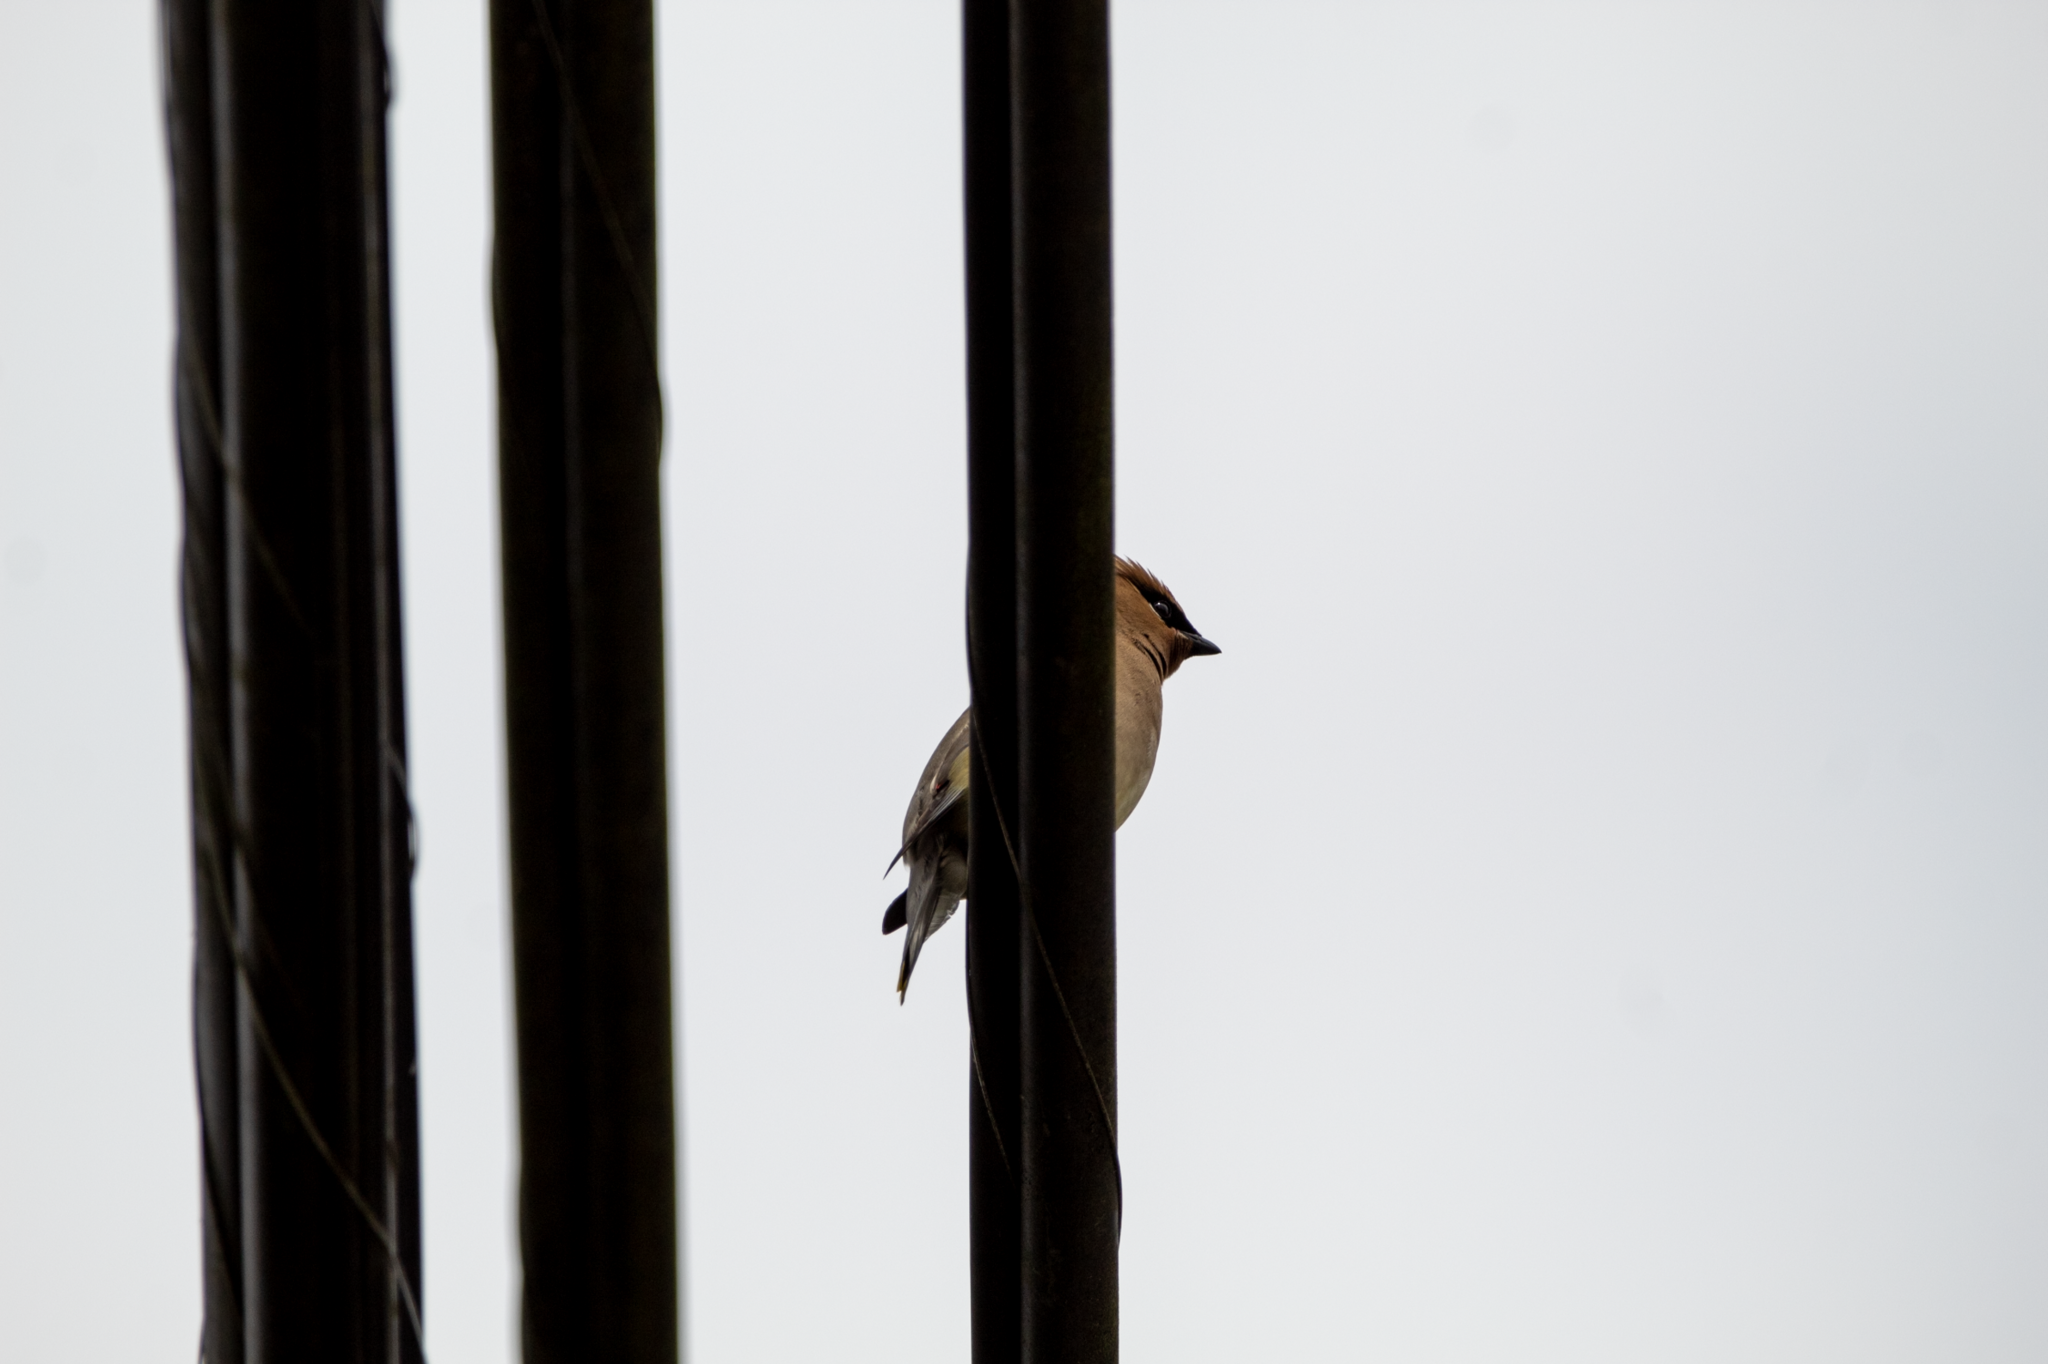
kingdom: Animalia
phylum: Chordata
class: Aves
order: Passeriformes
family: Bombycillidae
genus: Bombycilla
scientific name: Bombycilla cedrorum
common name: Cedar waxwing
